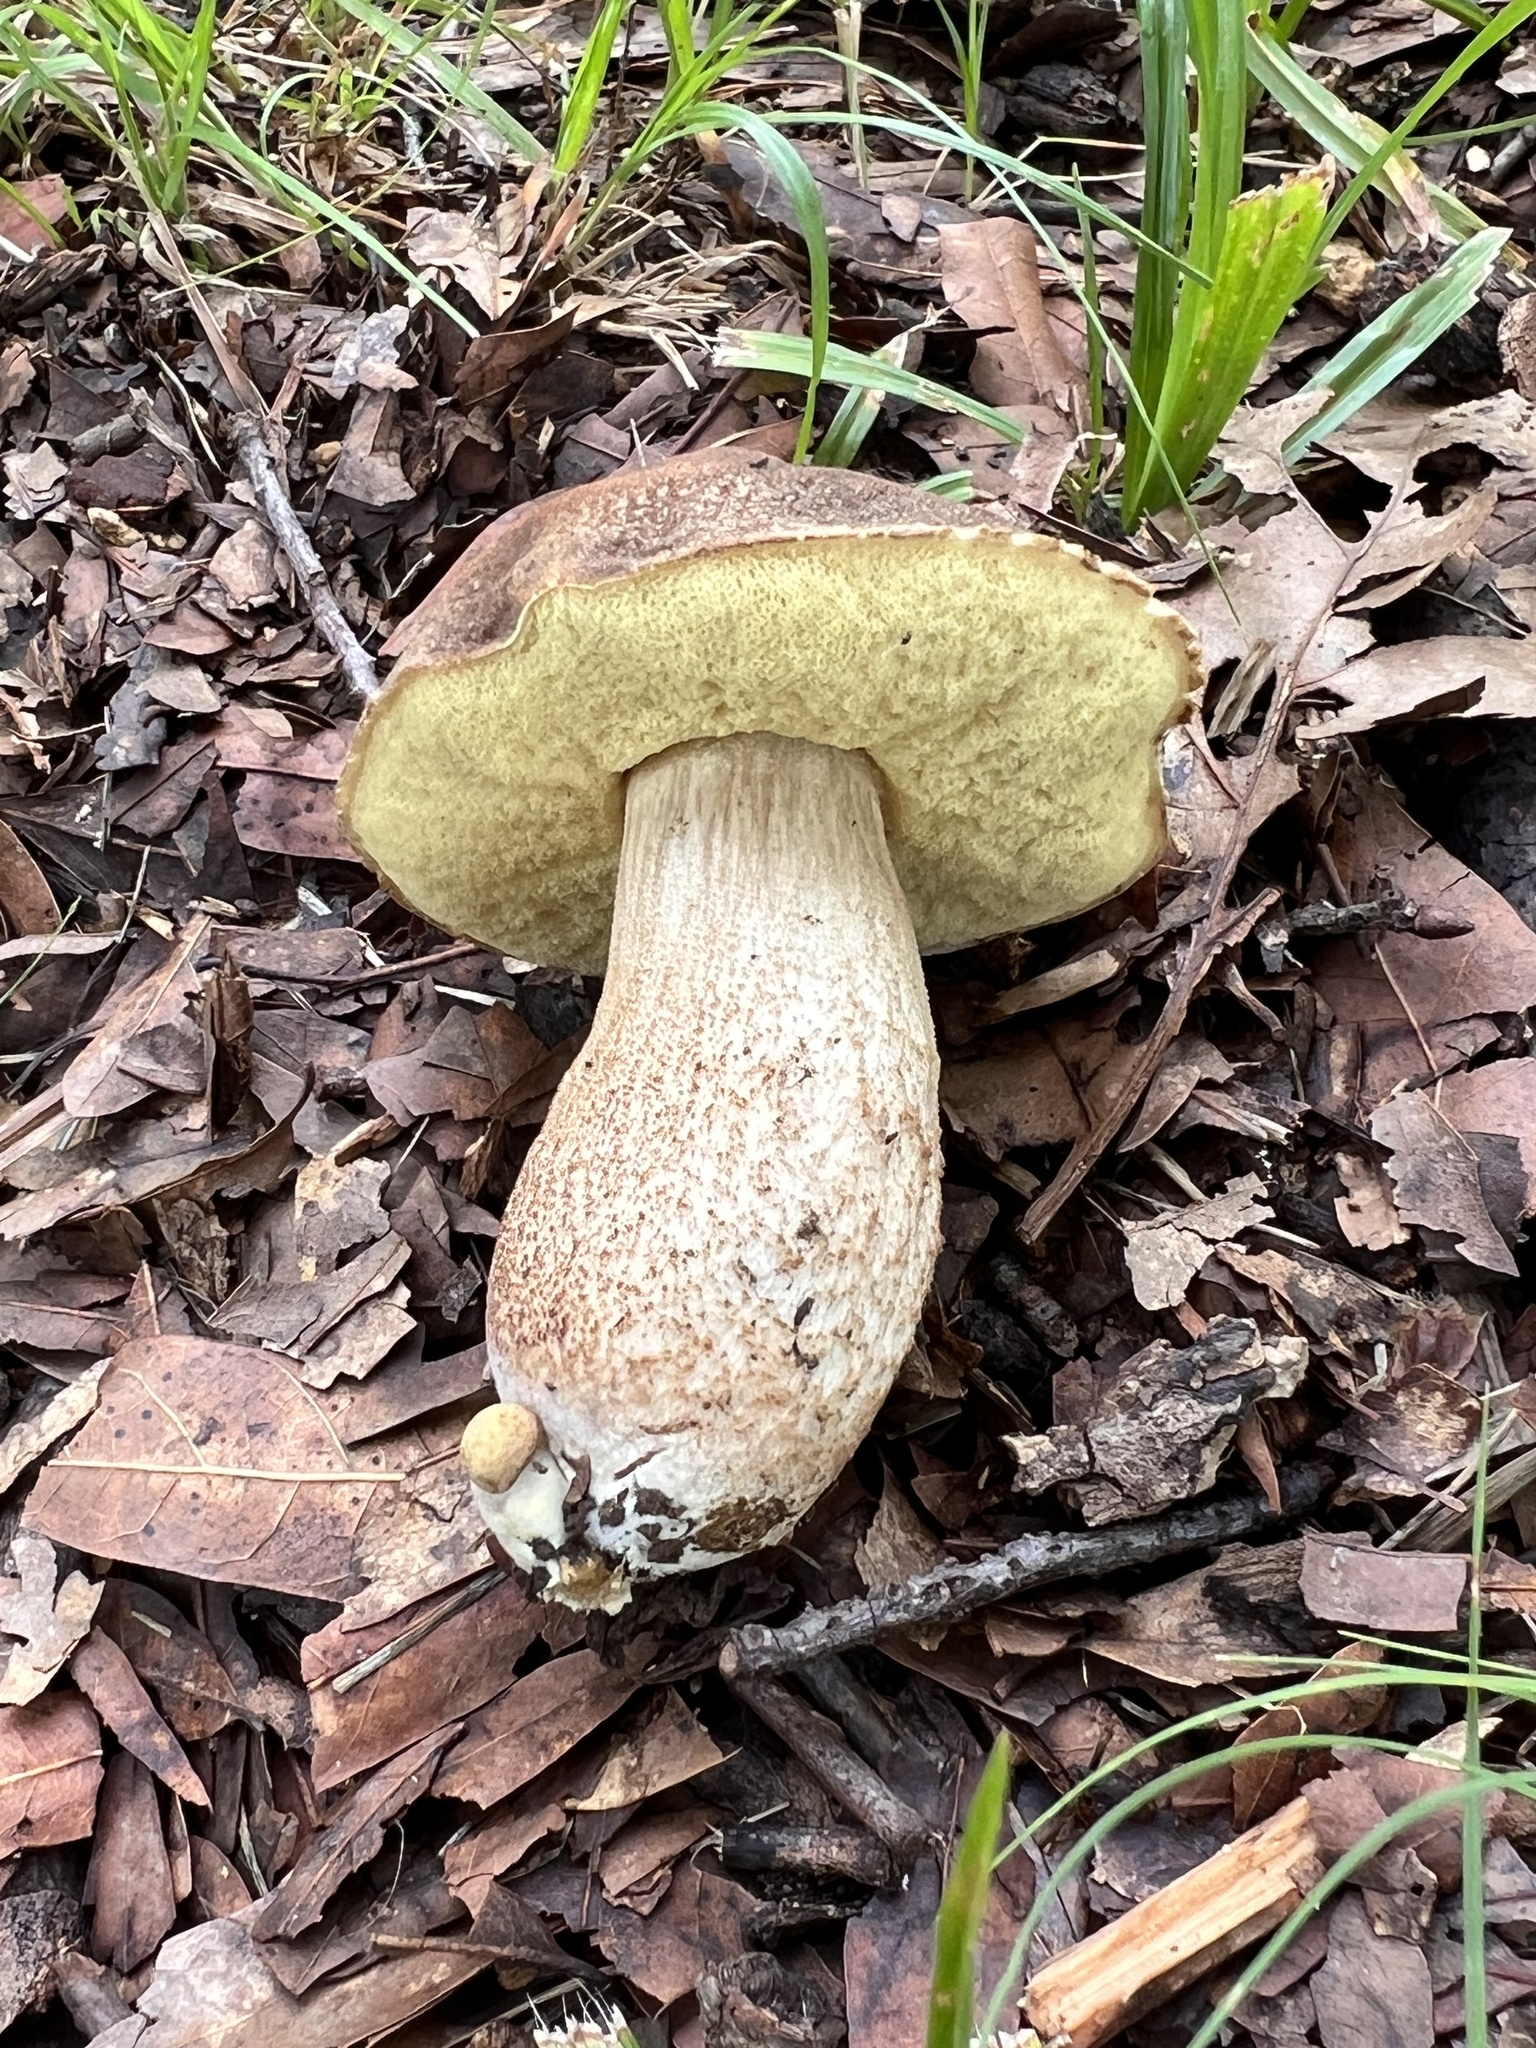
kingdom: Fungi
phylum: Basidiomycota
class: Agaricomycetes
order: Boletales
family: Boletaceae
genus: Leccinellum
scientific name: Leccinellum rugosiceps
